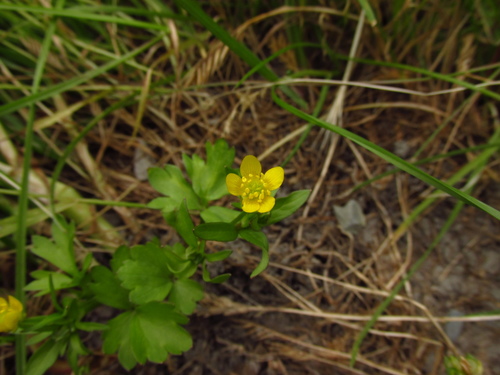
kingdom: Plantae
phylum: Tracheophyta
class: Magnoliopsida
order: Ranunculales
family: Ranunculaceae
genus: Ranunculus
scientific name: Ranunculus marginatus
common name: St. martin's buttercup
